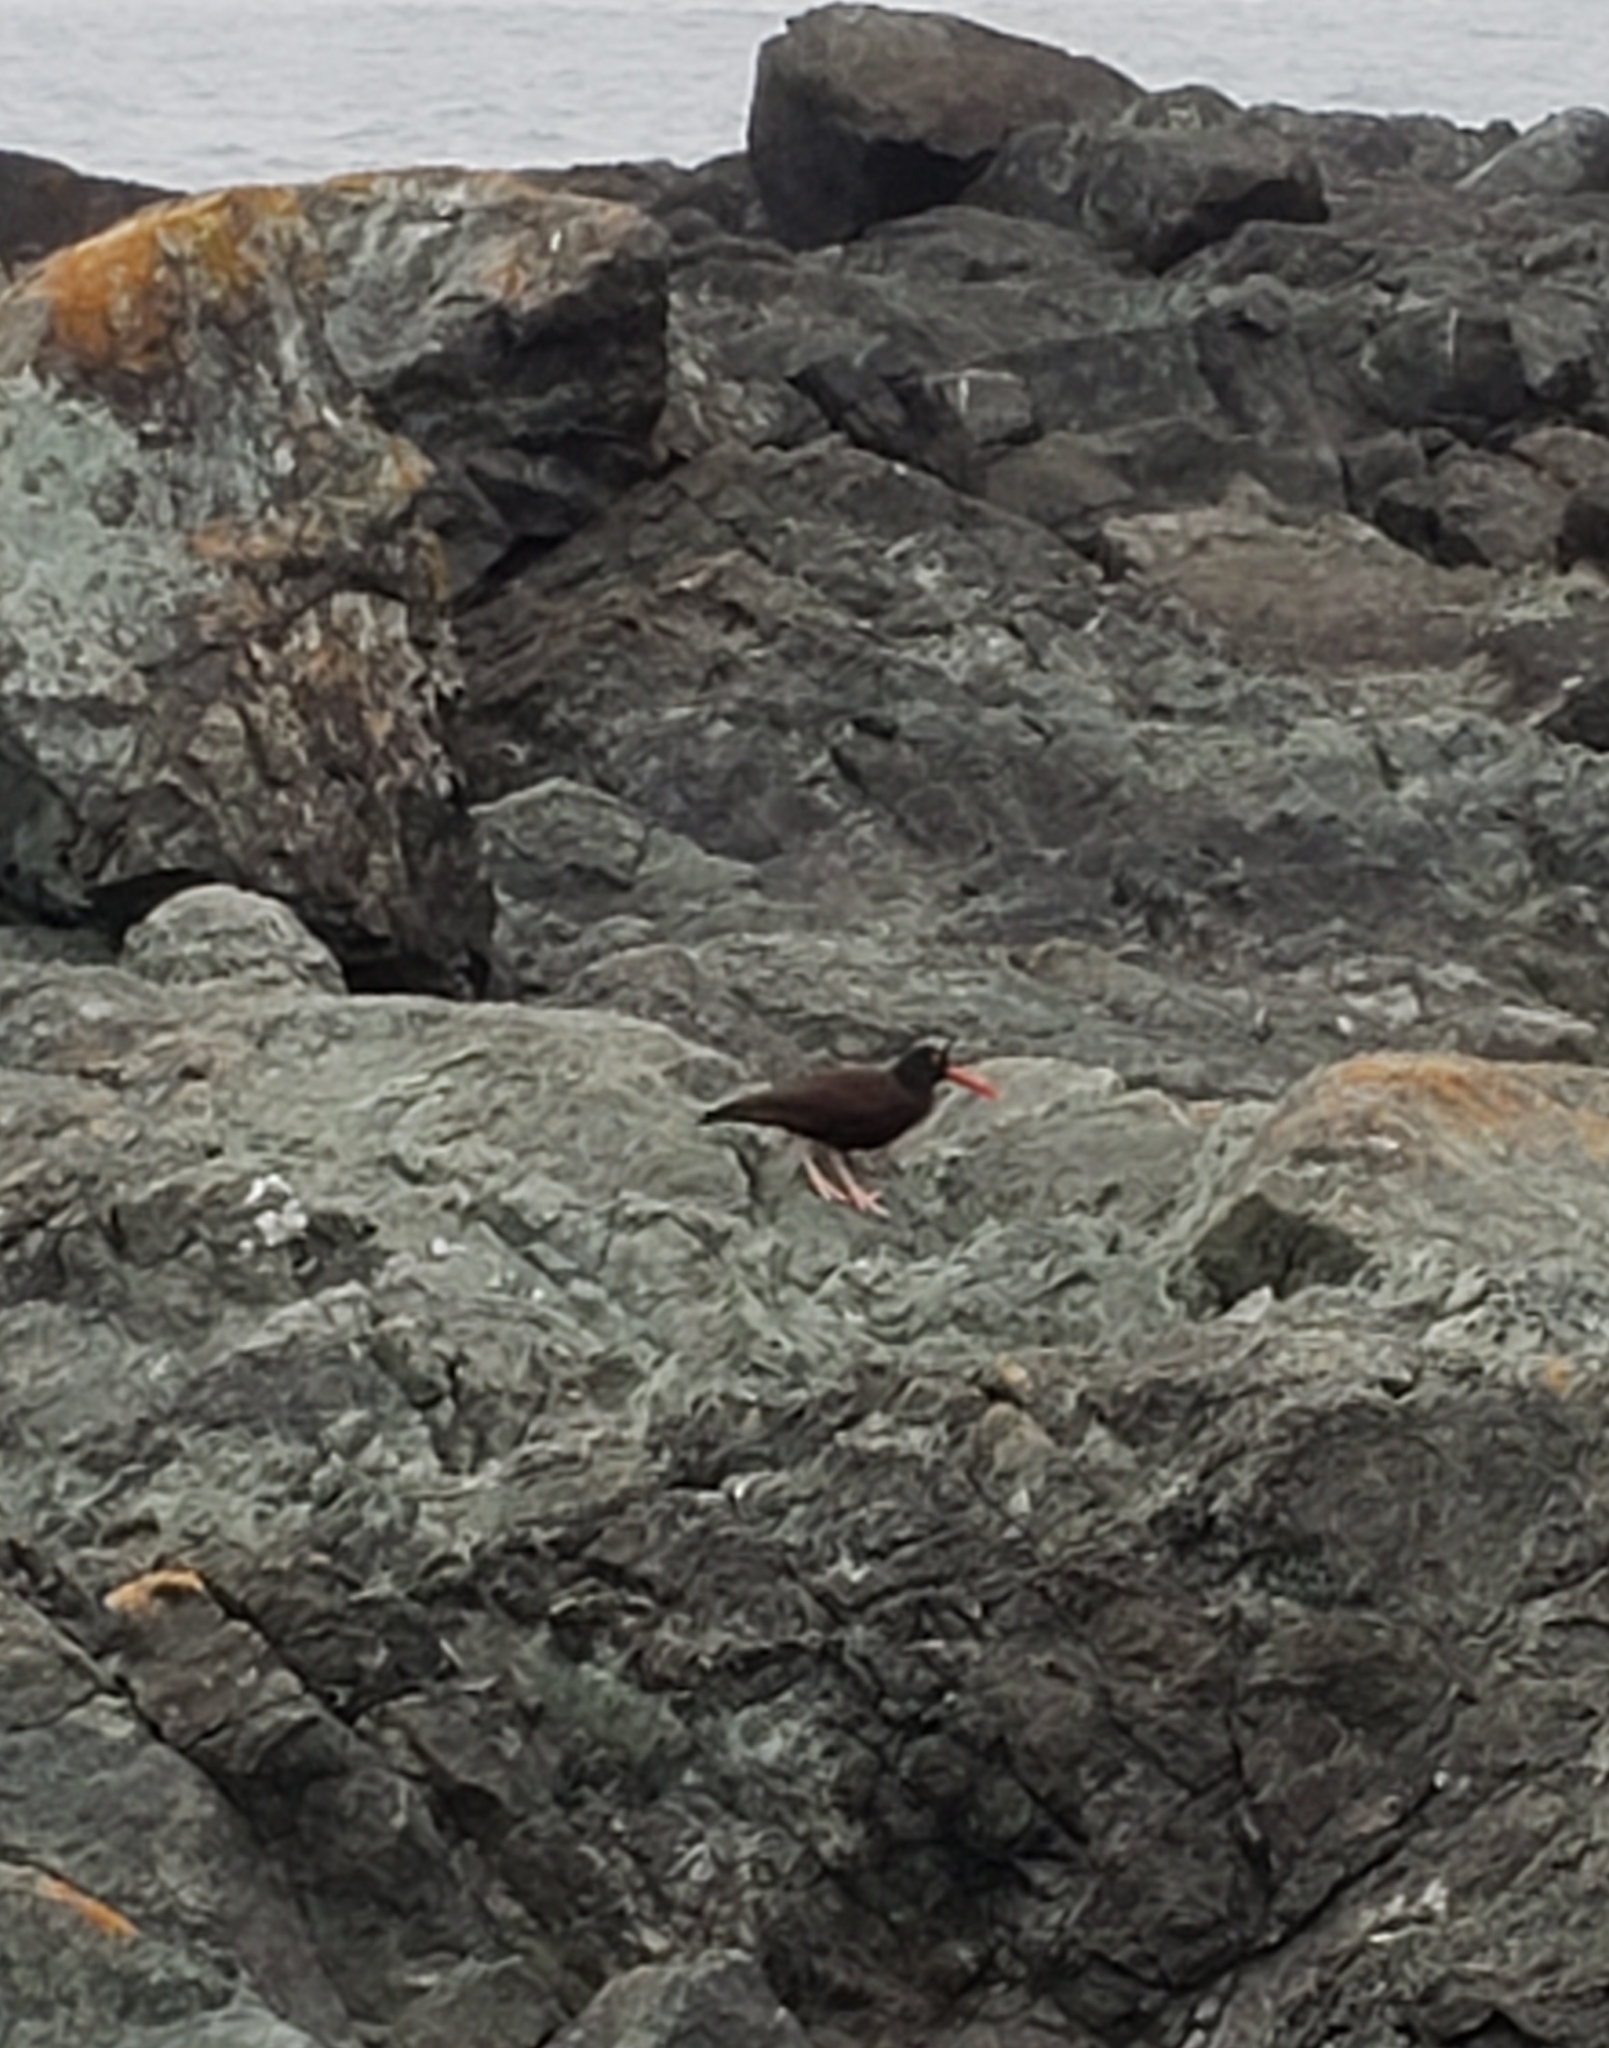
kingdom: Animalia
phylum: Chordata
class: Aves
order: Charadriiformes
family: Haematopodidae
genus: Haematopus
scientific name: Haematopus bachmani
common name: Black oystercatcher
